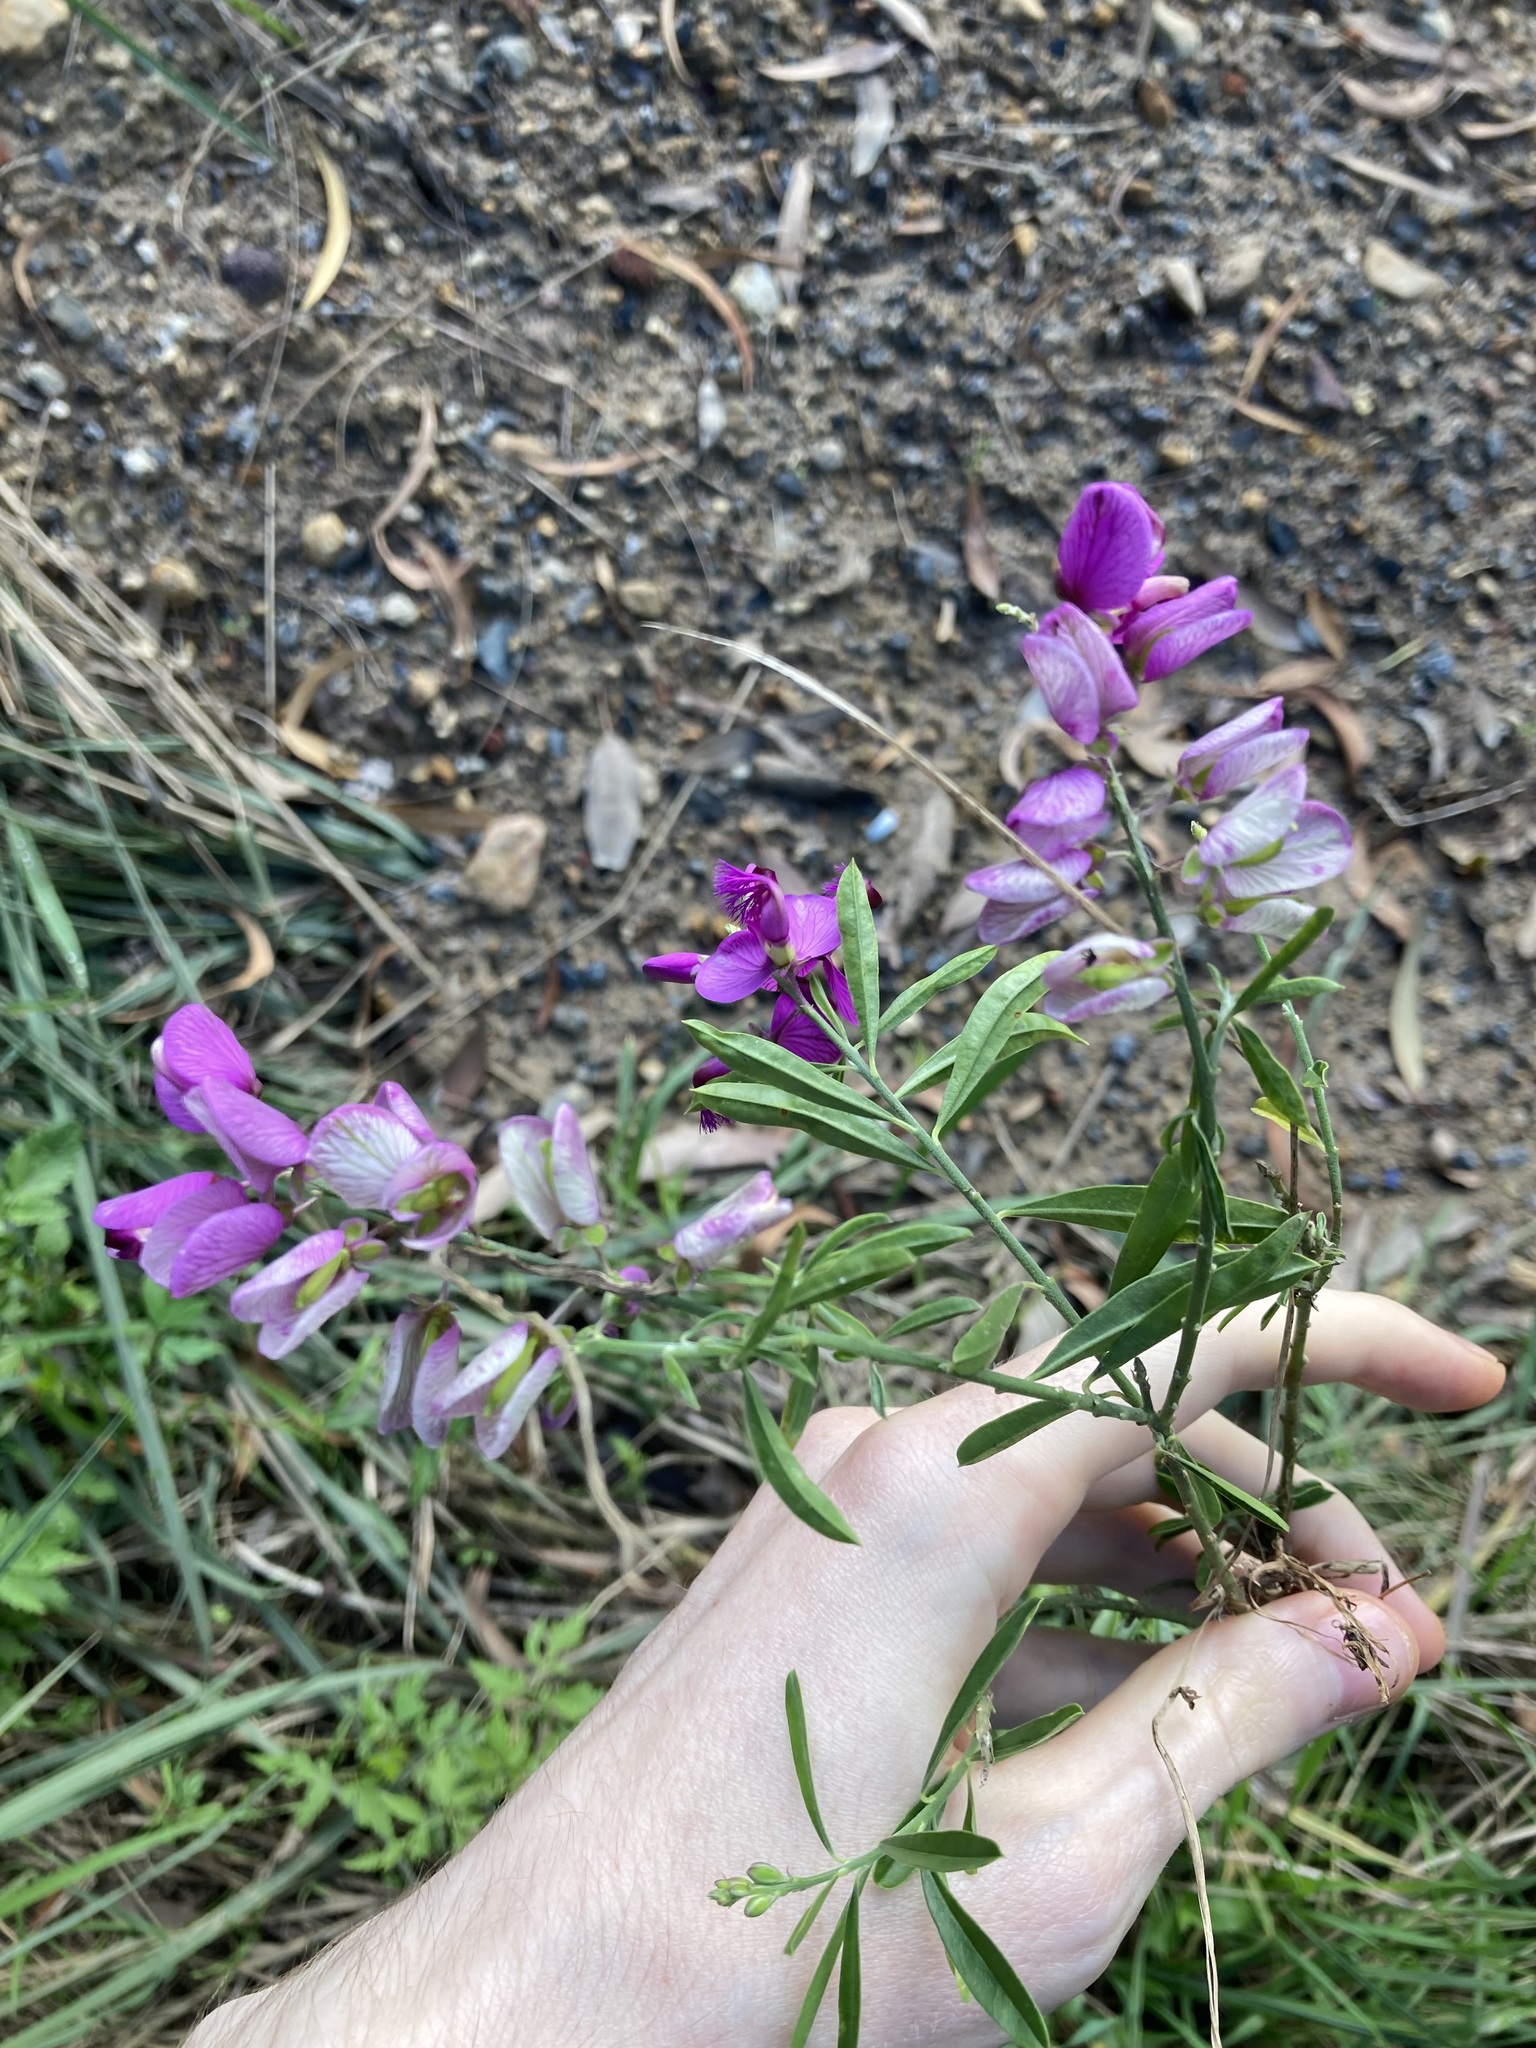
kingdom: Plantae
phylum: Tracheophyta
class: Magnoliopsida
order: Fabales
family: Polygalaceae
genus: Polygala
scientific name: Polygala virgata
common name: Milkwort
